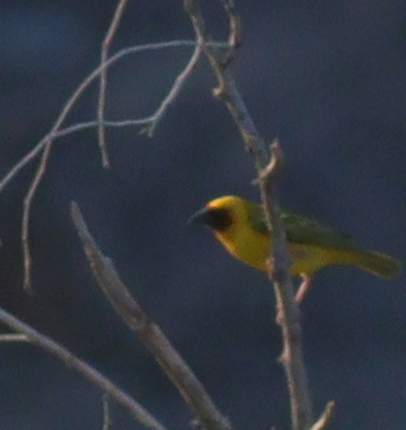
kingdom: Animalia
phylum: Chordata
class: Aves
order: Passeriformes
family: Ploceidae
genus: Ploceus
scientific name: Ploceus galbula
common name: Rüppell's weaver
